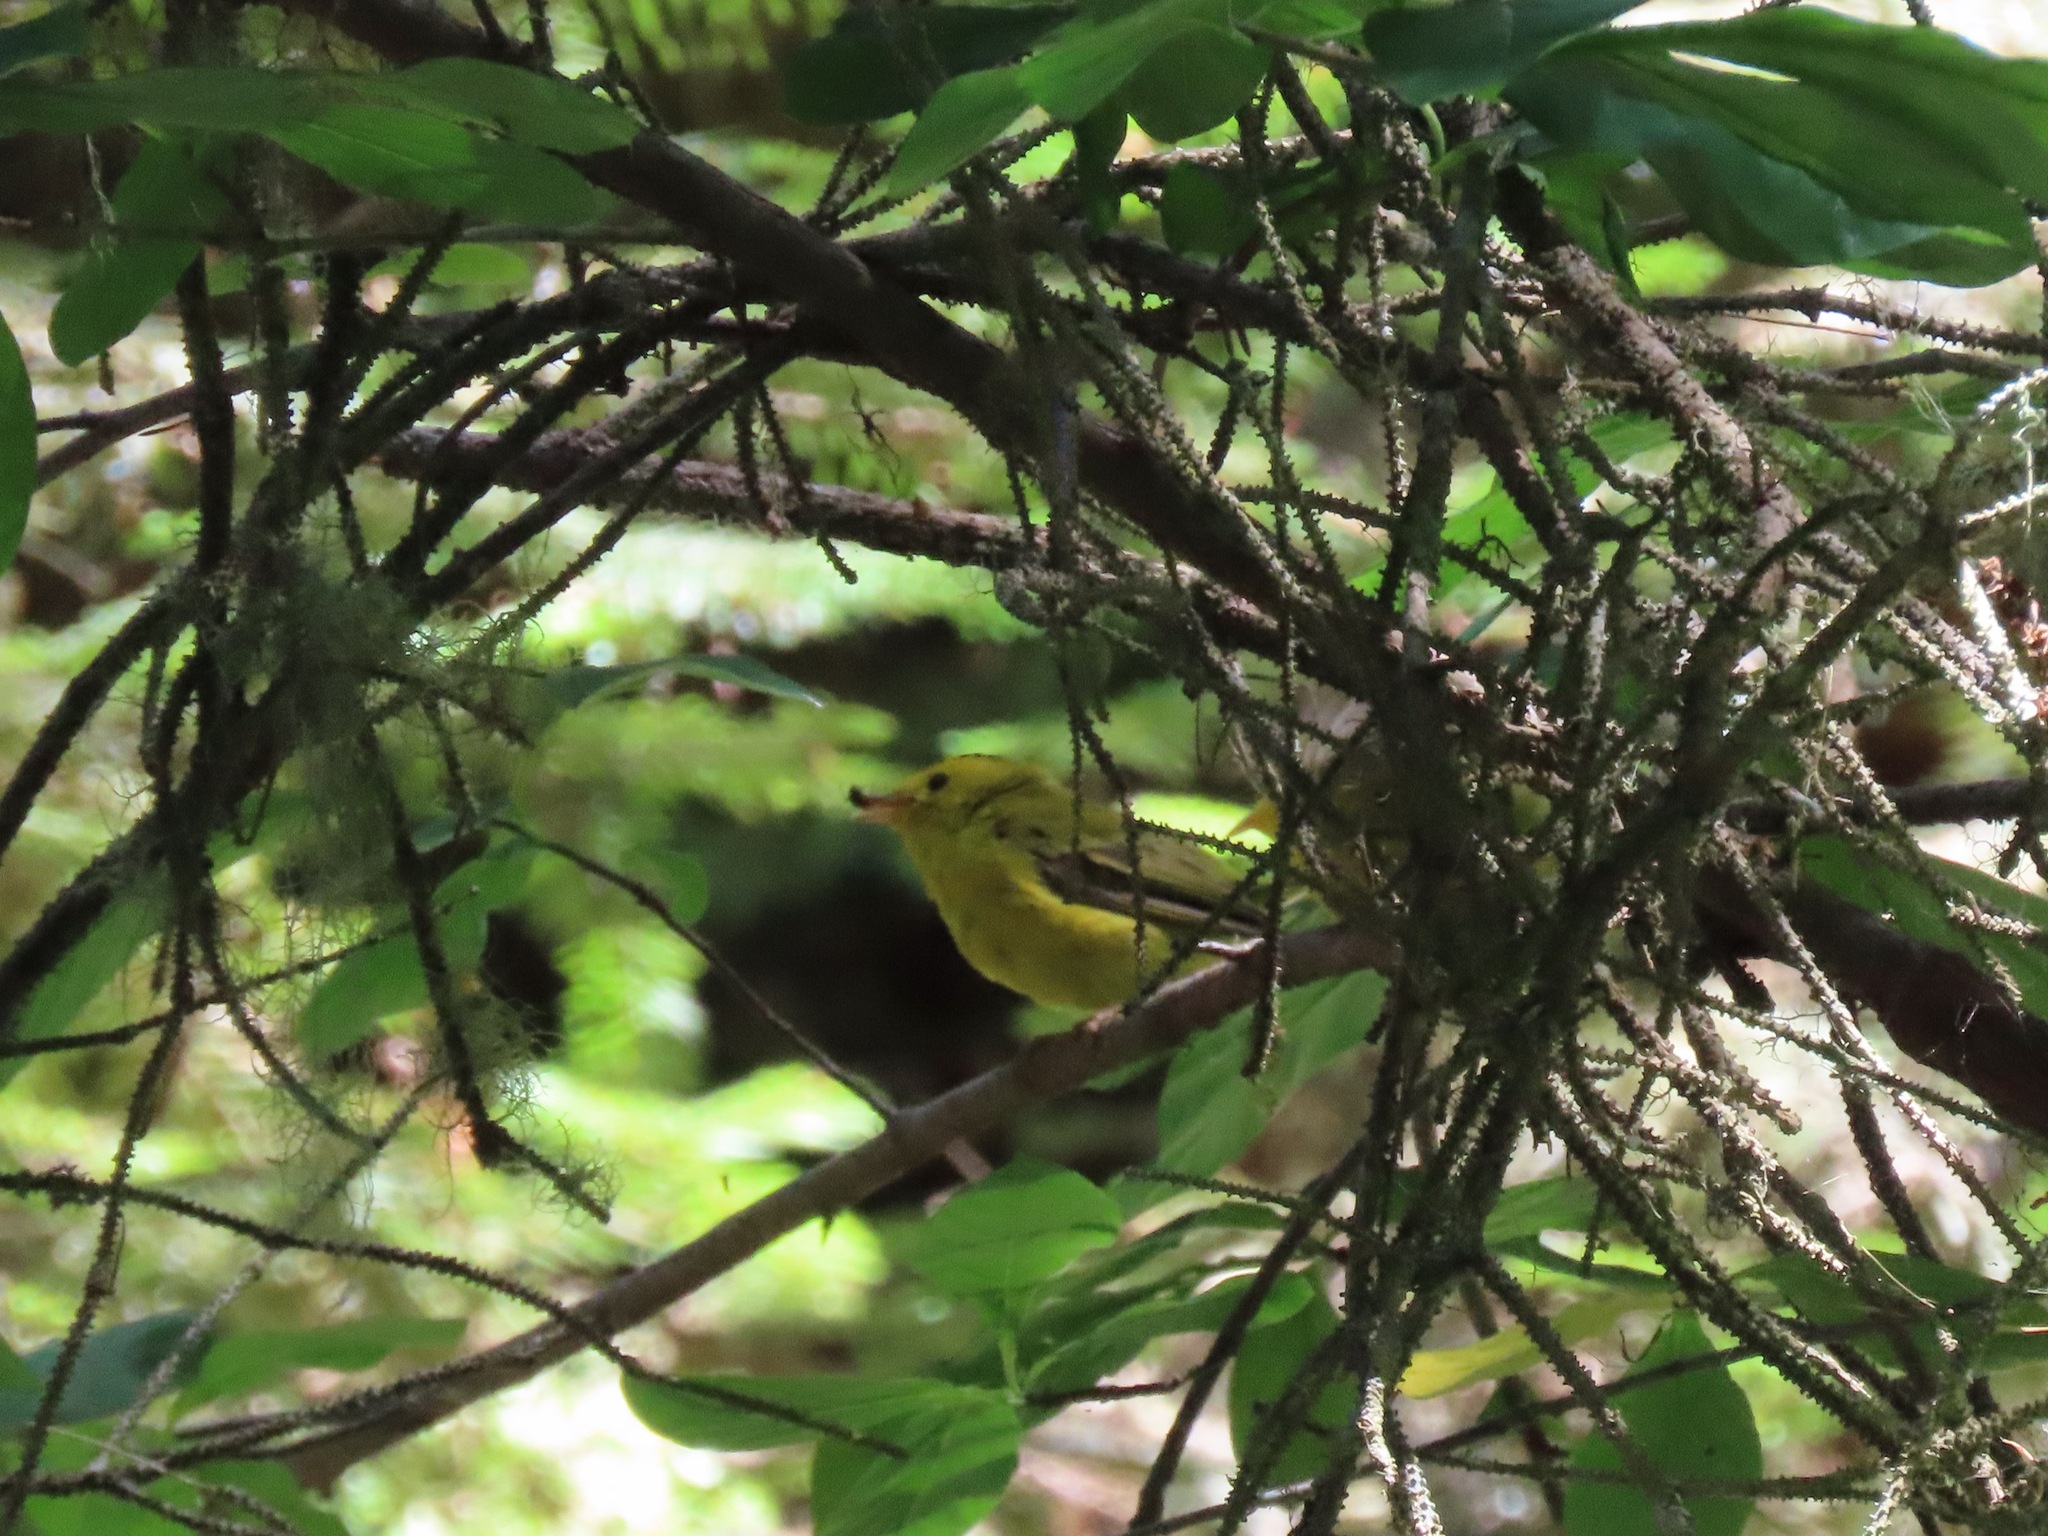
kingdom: Animalia
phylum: Chordata
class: Aves
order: Passeriformes
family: Parulidae
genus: Cardellina
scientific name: Cardellina pusilla
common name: Wilson's warbler
